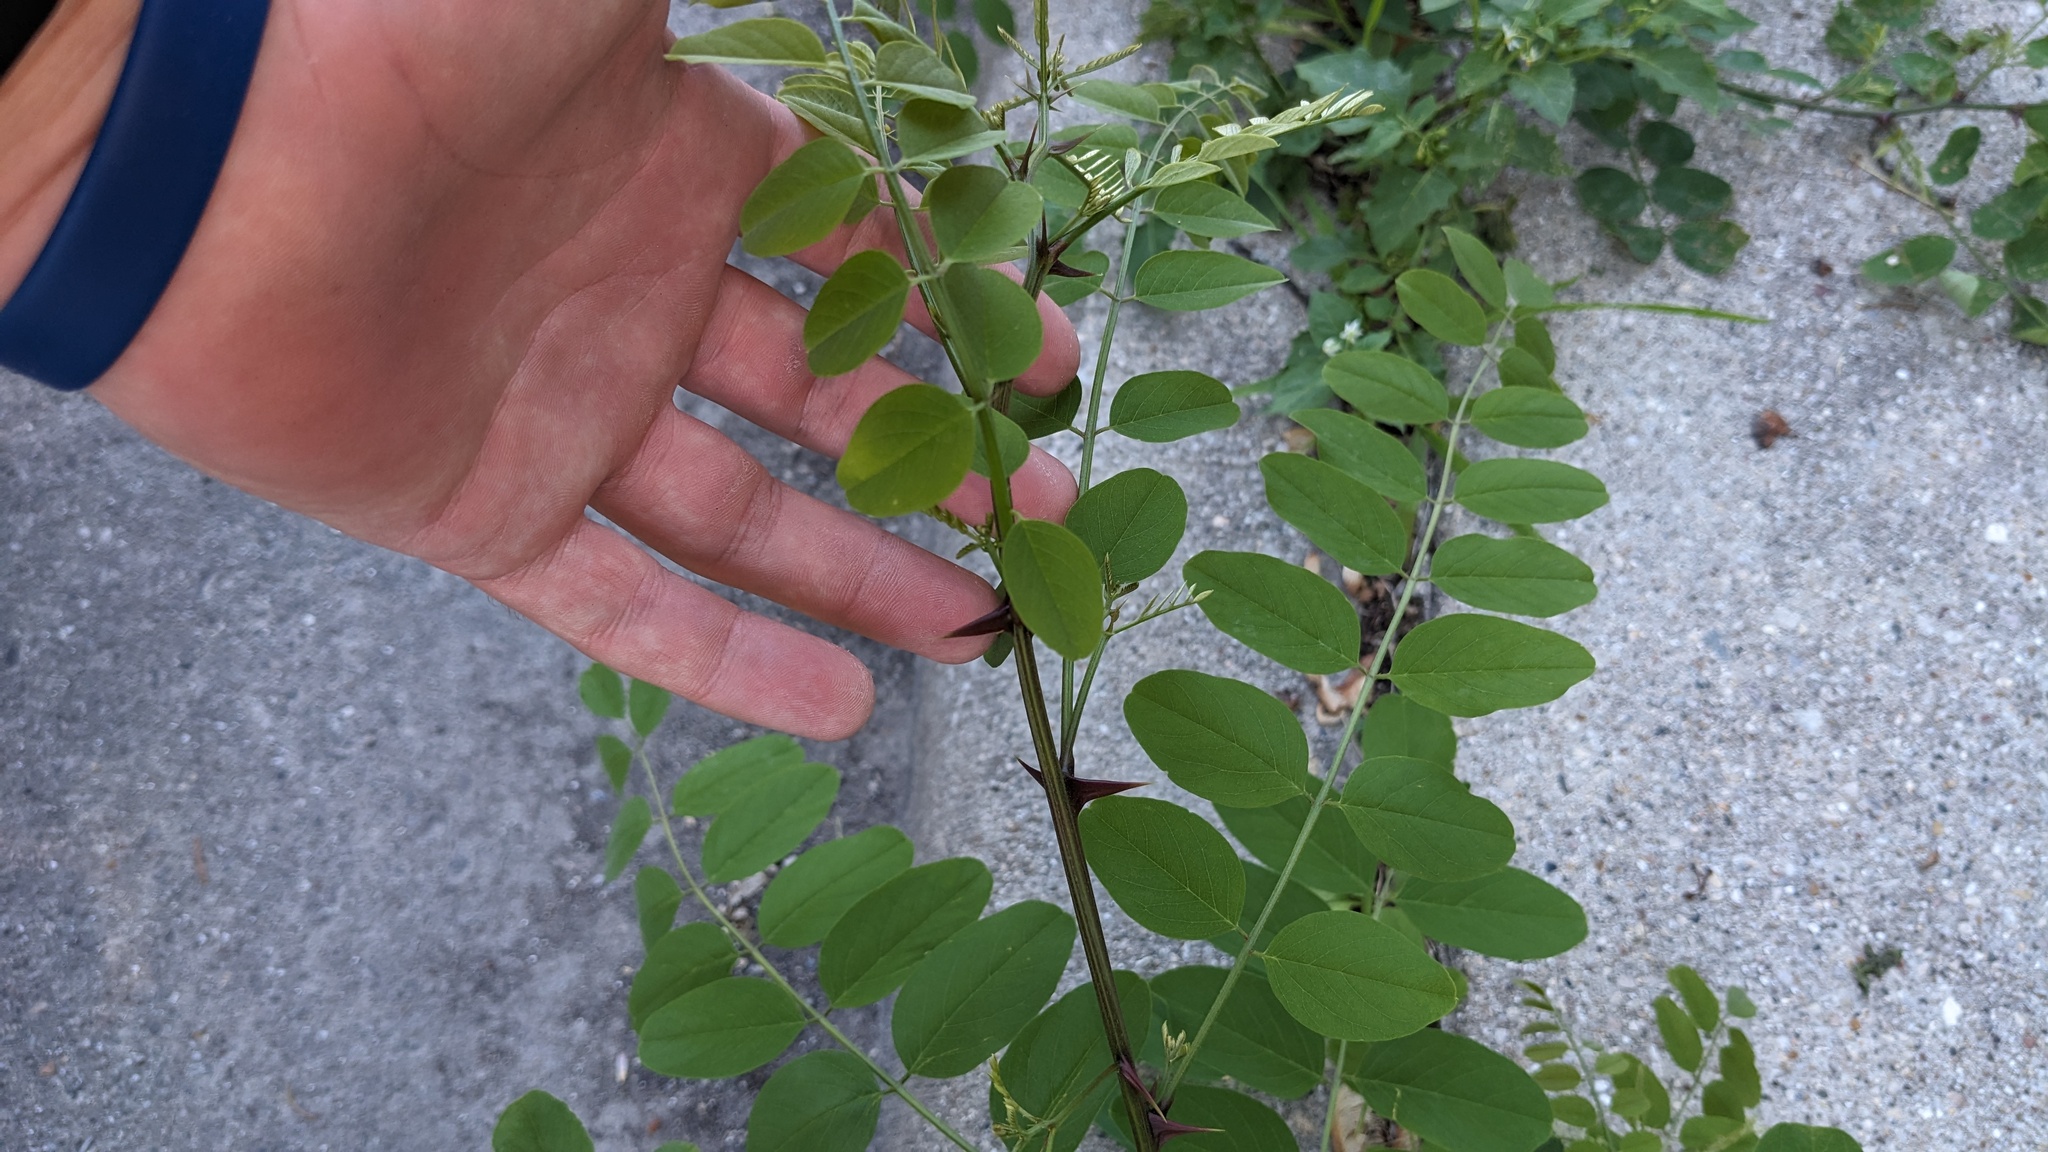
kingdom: Plantae
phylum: Tracheophyta
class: Magnoliopsida
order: Fabales
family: Fabaceae
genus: Robinia
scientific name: Robinia pseudoacacia
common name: Black locust
